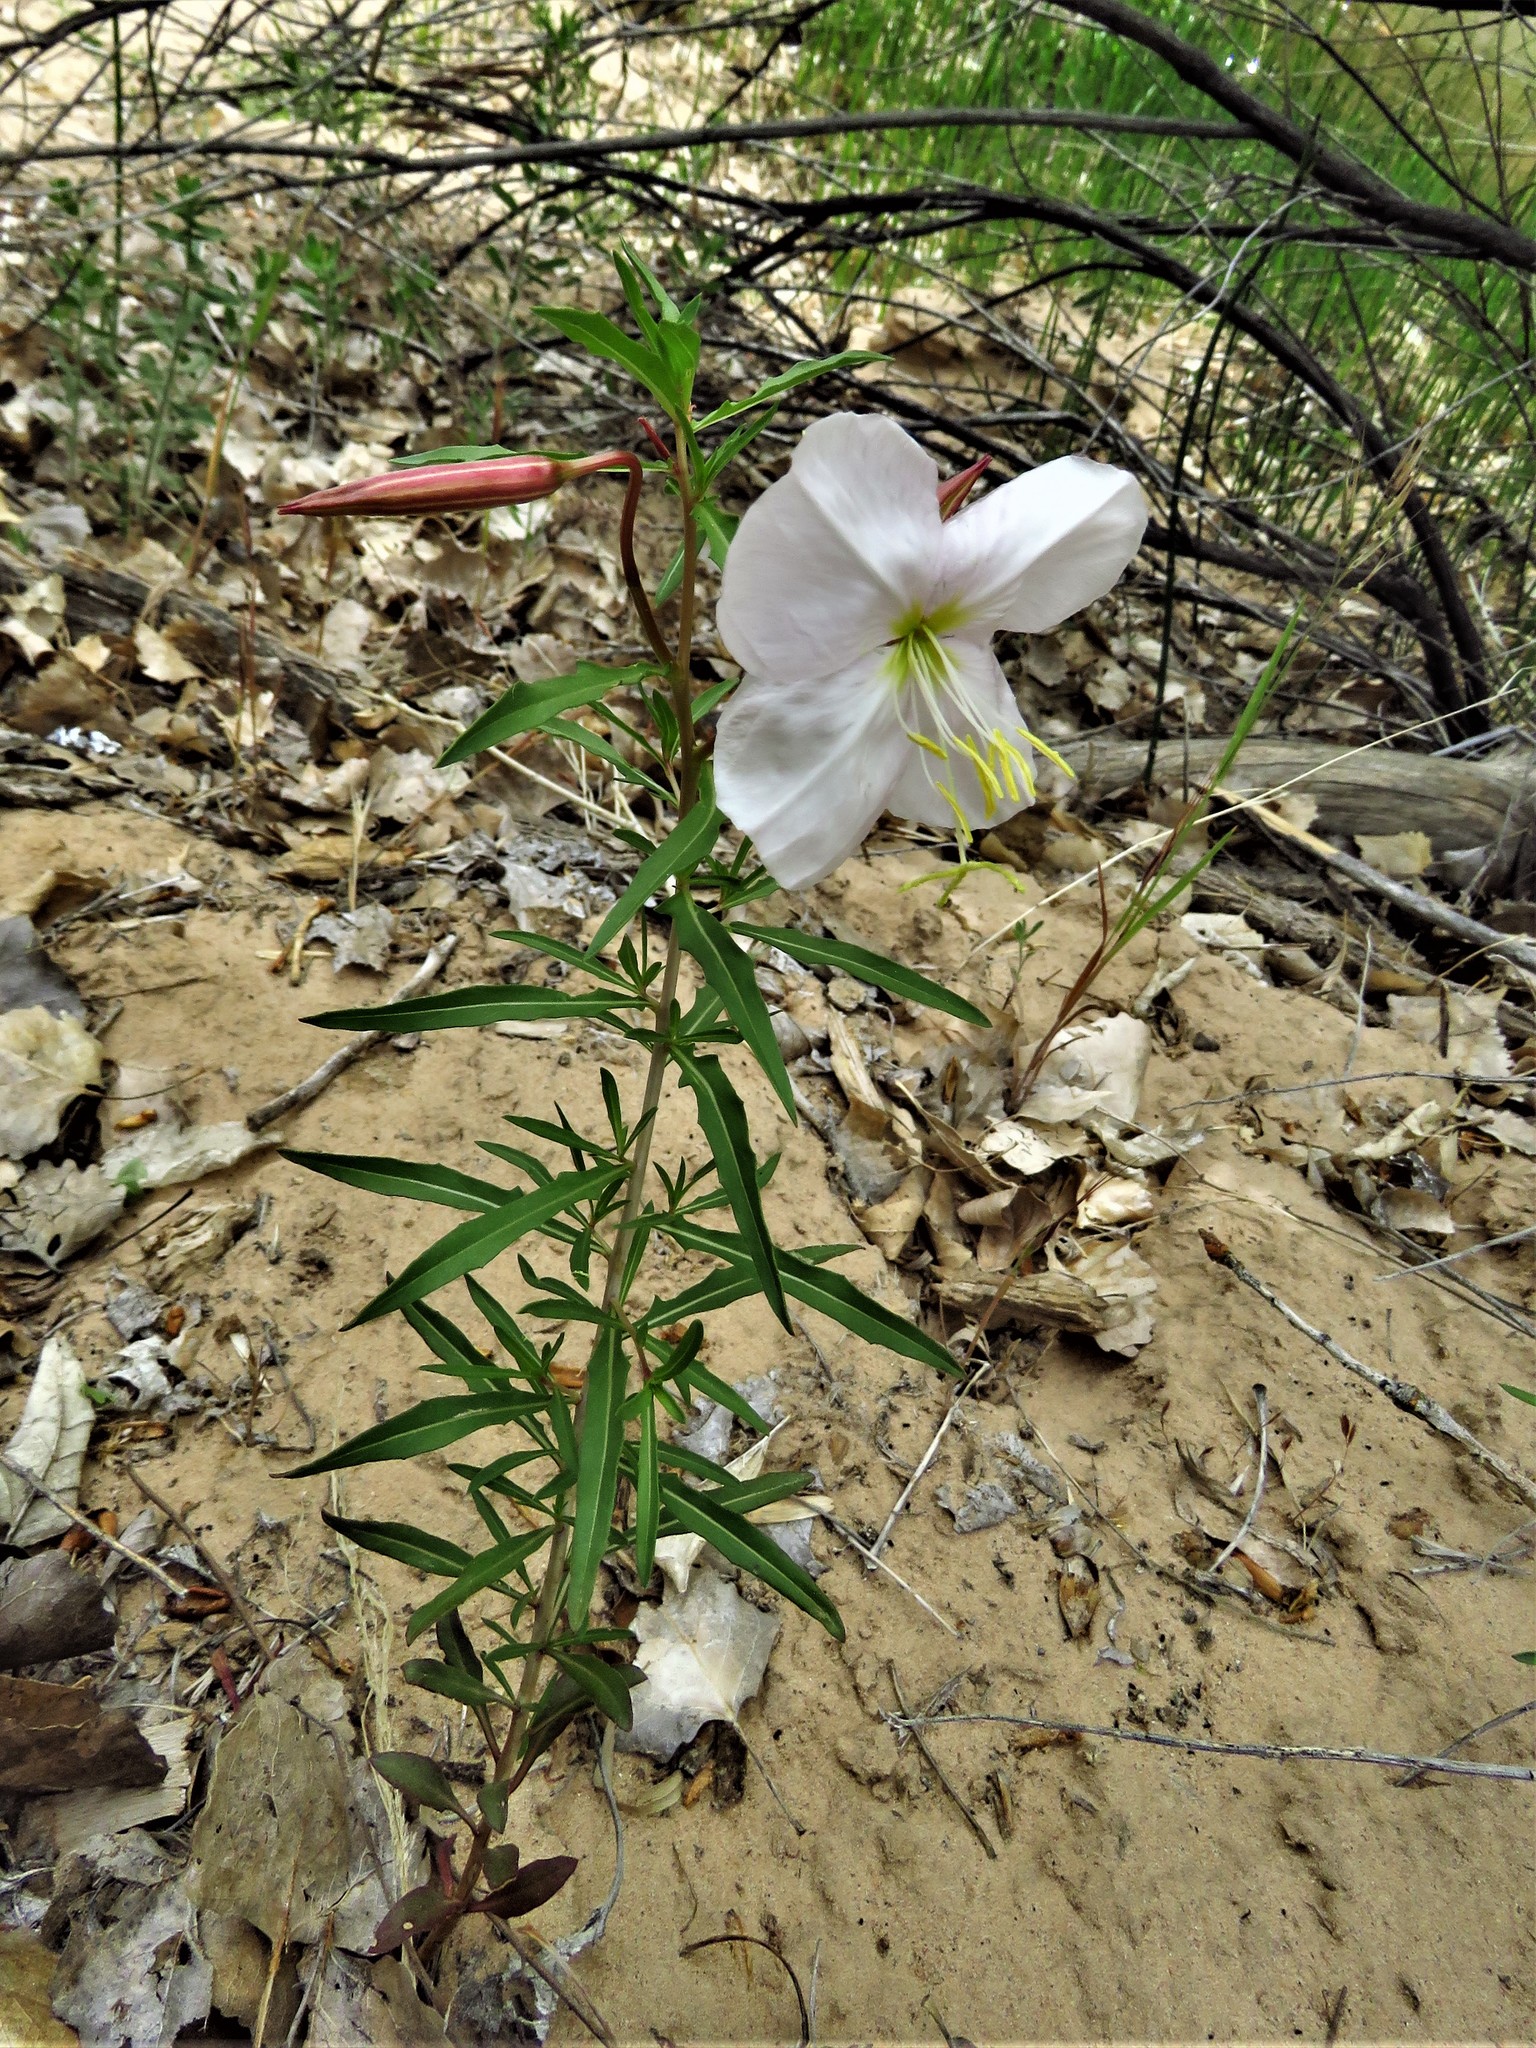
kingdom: Plantae
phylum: Tracheophyta
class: Magnoliopsida
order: Myrtales
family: Onagraceae
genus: Oenothera
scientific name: Oenothera pallida
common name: Pale evening-primrose
